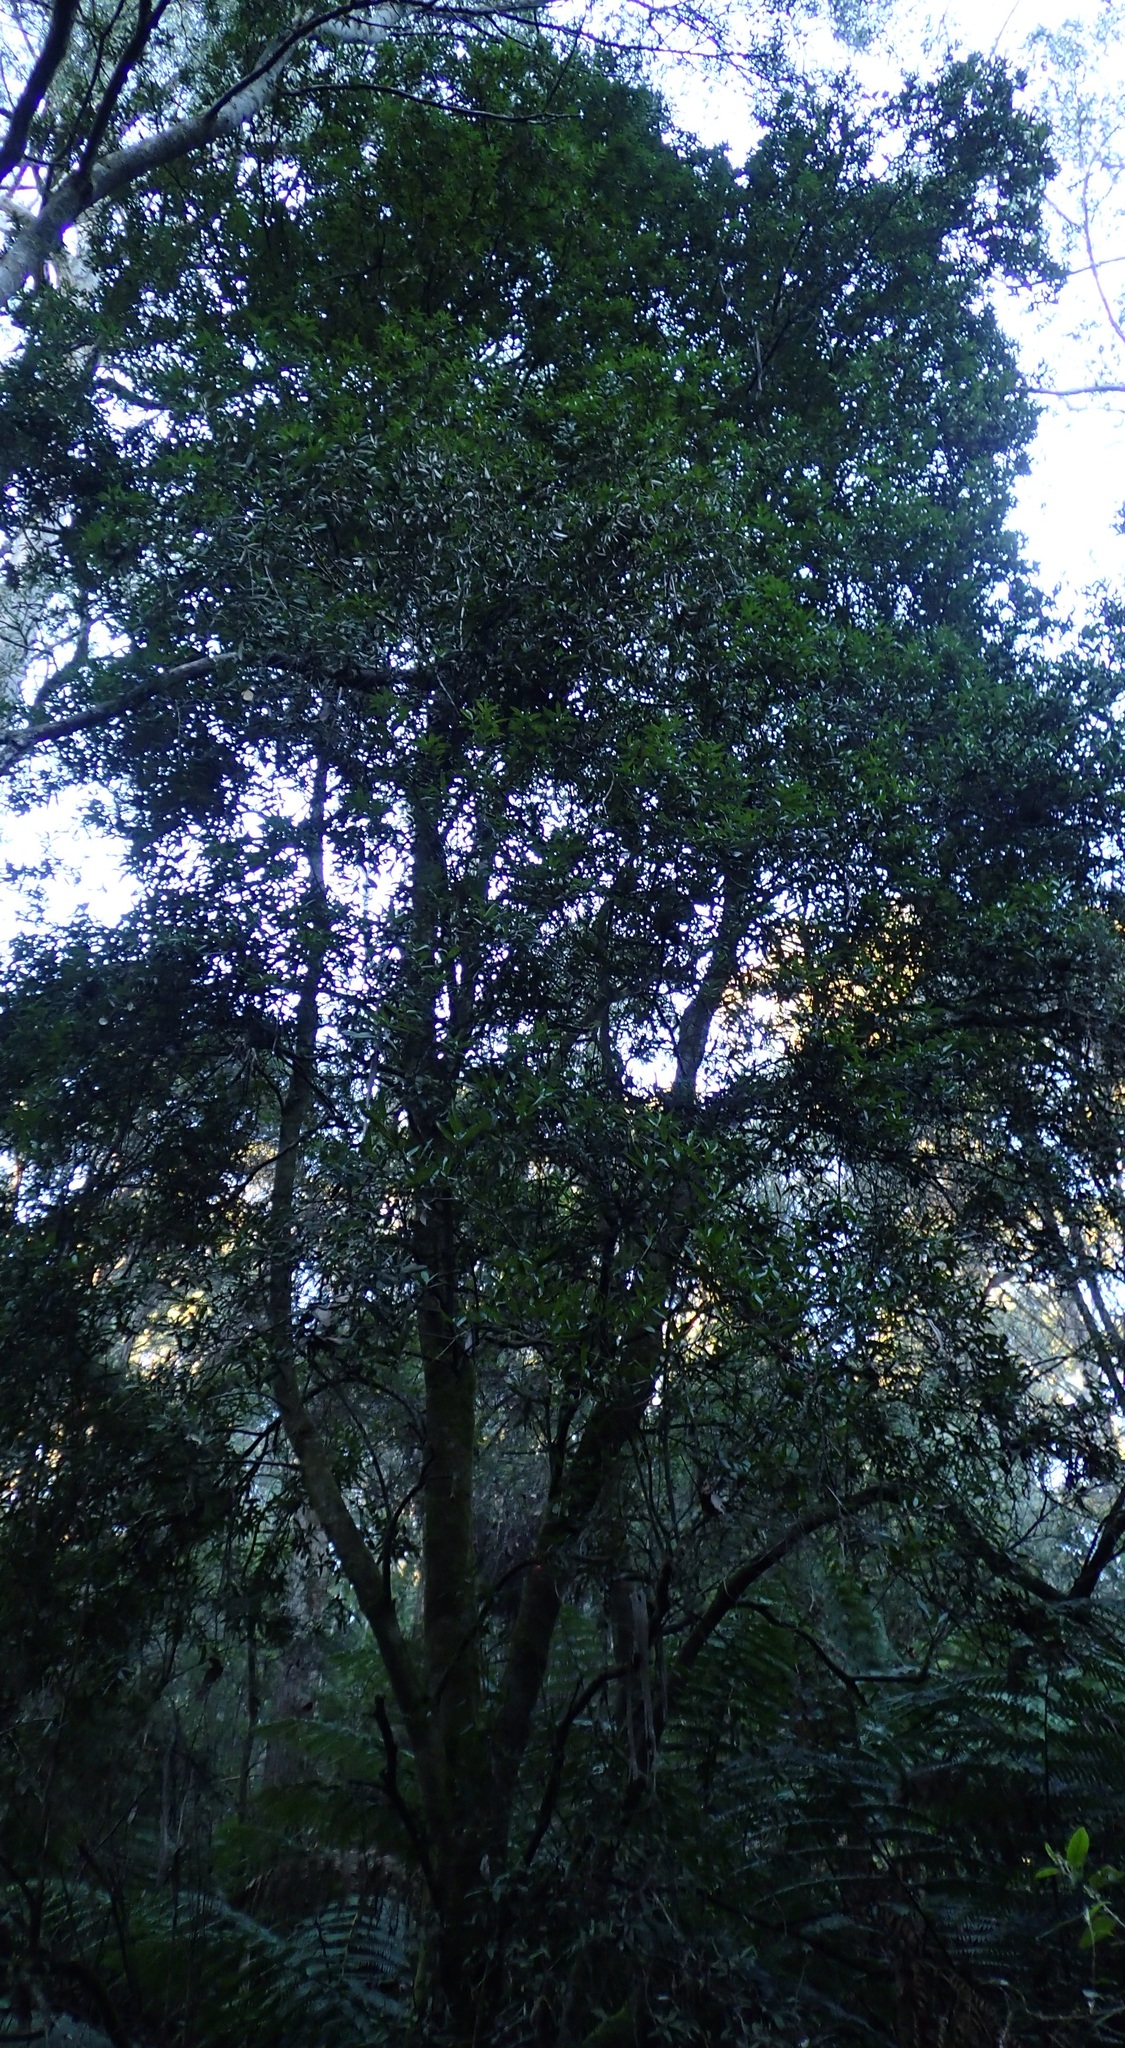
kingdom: Plantae
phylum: Tracheophyta
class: Magnoliopsida
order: Apiales
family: Pittosporaceae
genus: Pittosporum
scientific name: Pittosporum bicolor
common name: Tallowwood
